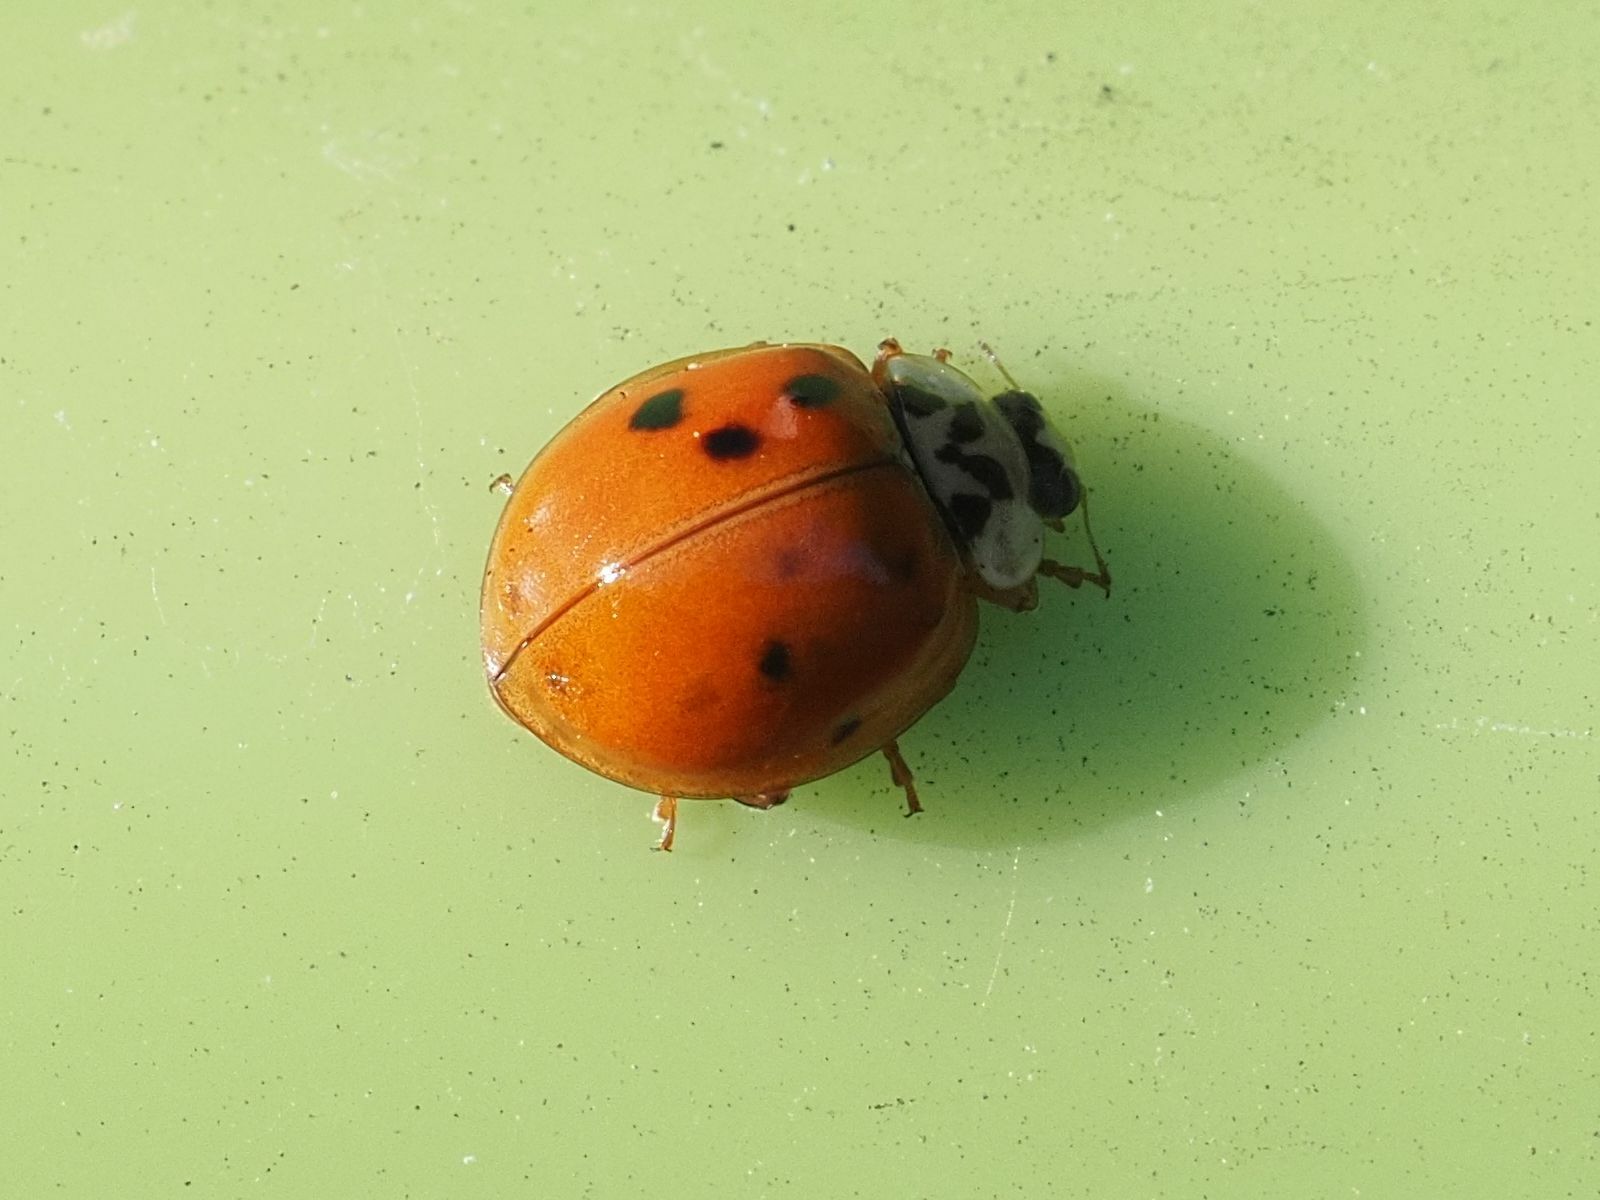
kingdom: Animalia
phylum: Arthropoda
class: Insecta
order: Coleoptera
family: Coccinellidae
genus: Harmonia
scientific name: Harmonia axyridis
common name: Harlequin ladybird
